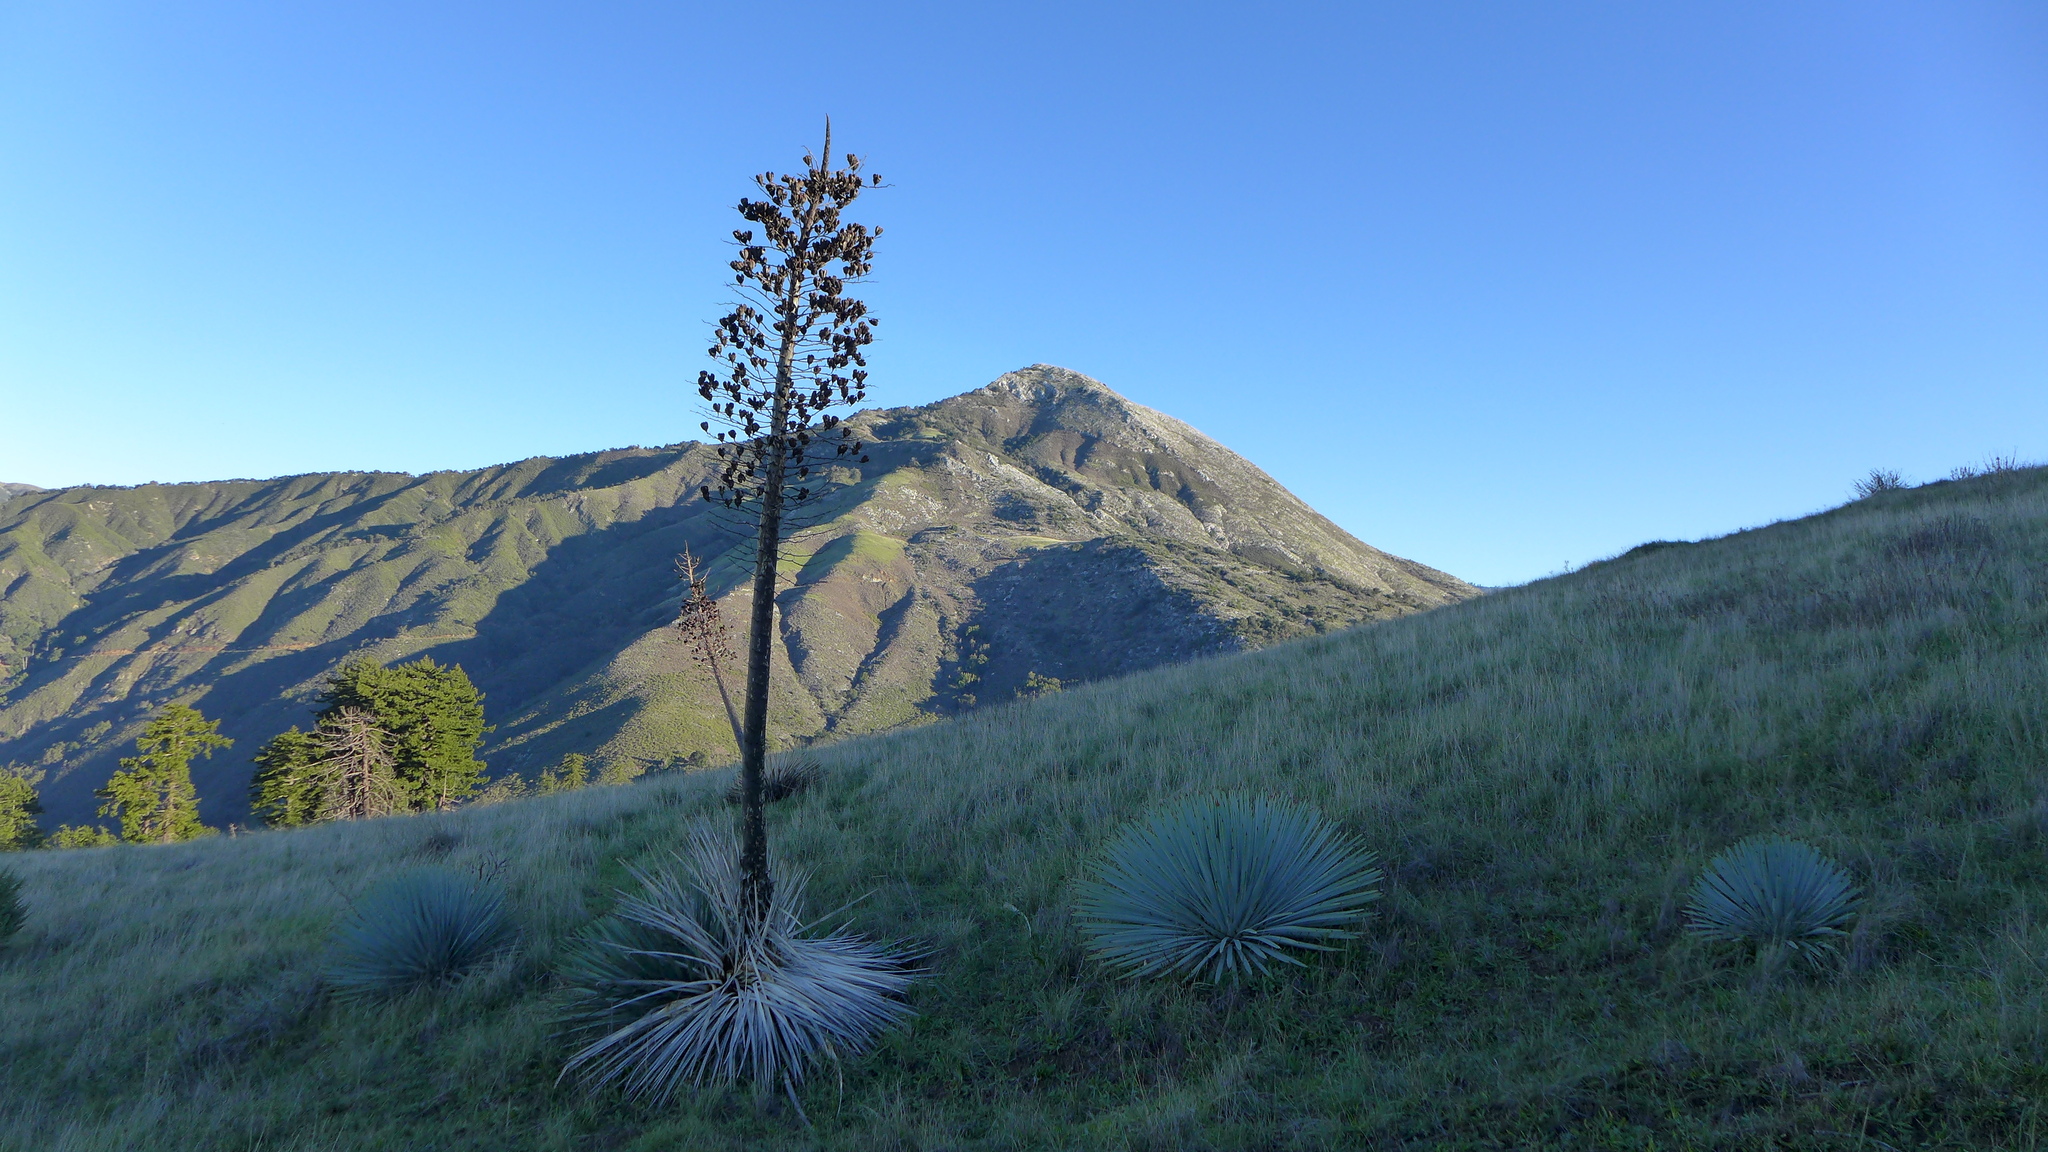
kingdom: Plantae
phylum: Tracheophyta
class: Liliopsida
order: Asparagales
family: Asparagaceae
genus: Hesperoyucca
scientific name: Hesperoyucca whipplei
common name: Our lord's-candle
